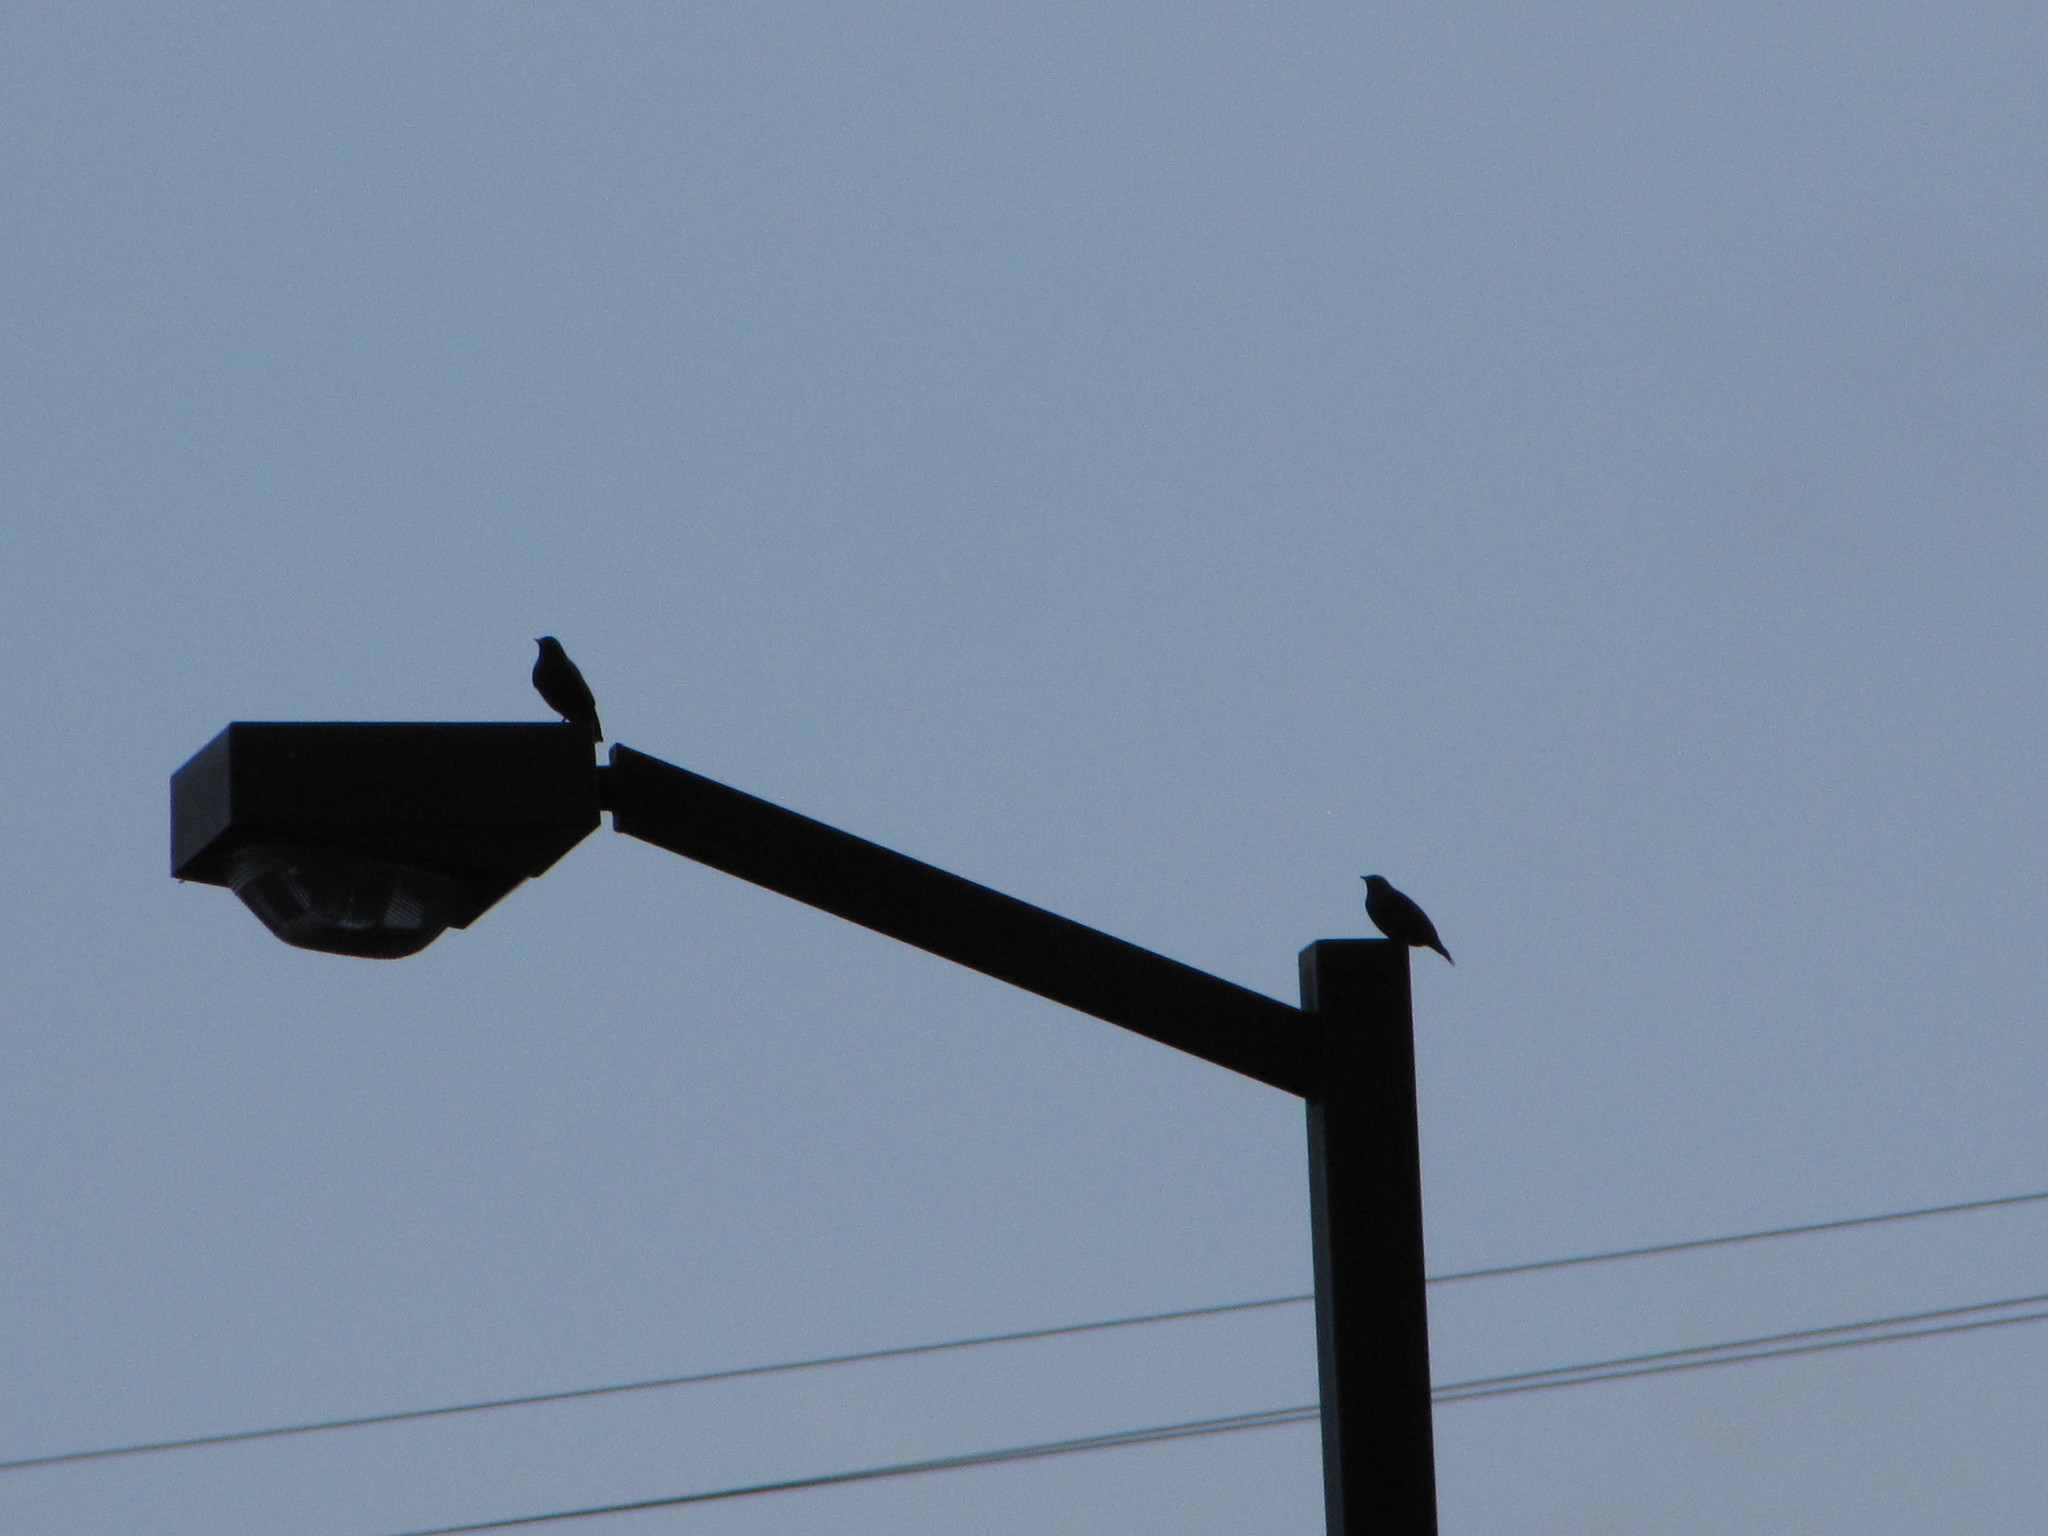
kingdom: Animalia
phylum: Chordata
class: Aves
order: Passeriformes
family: Sturnidae
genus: Sturnus
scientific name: Sturnus vulgaris
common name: Common starling
